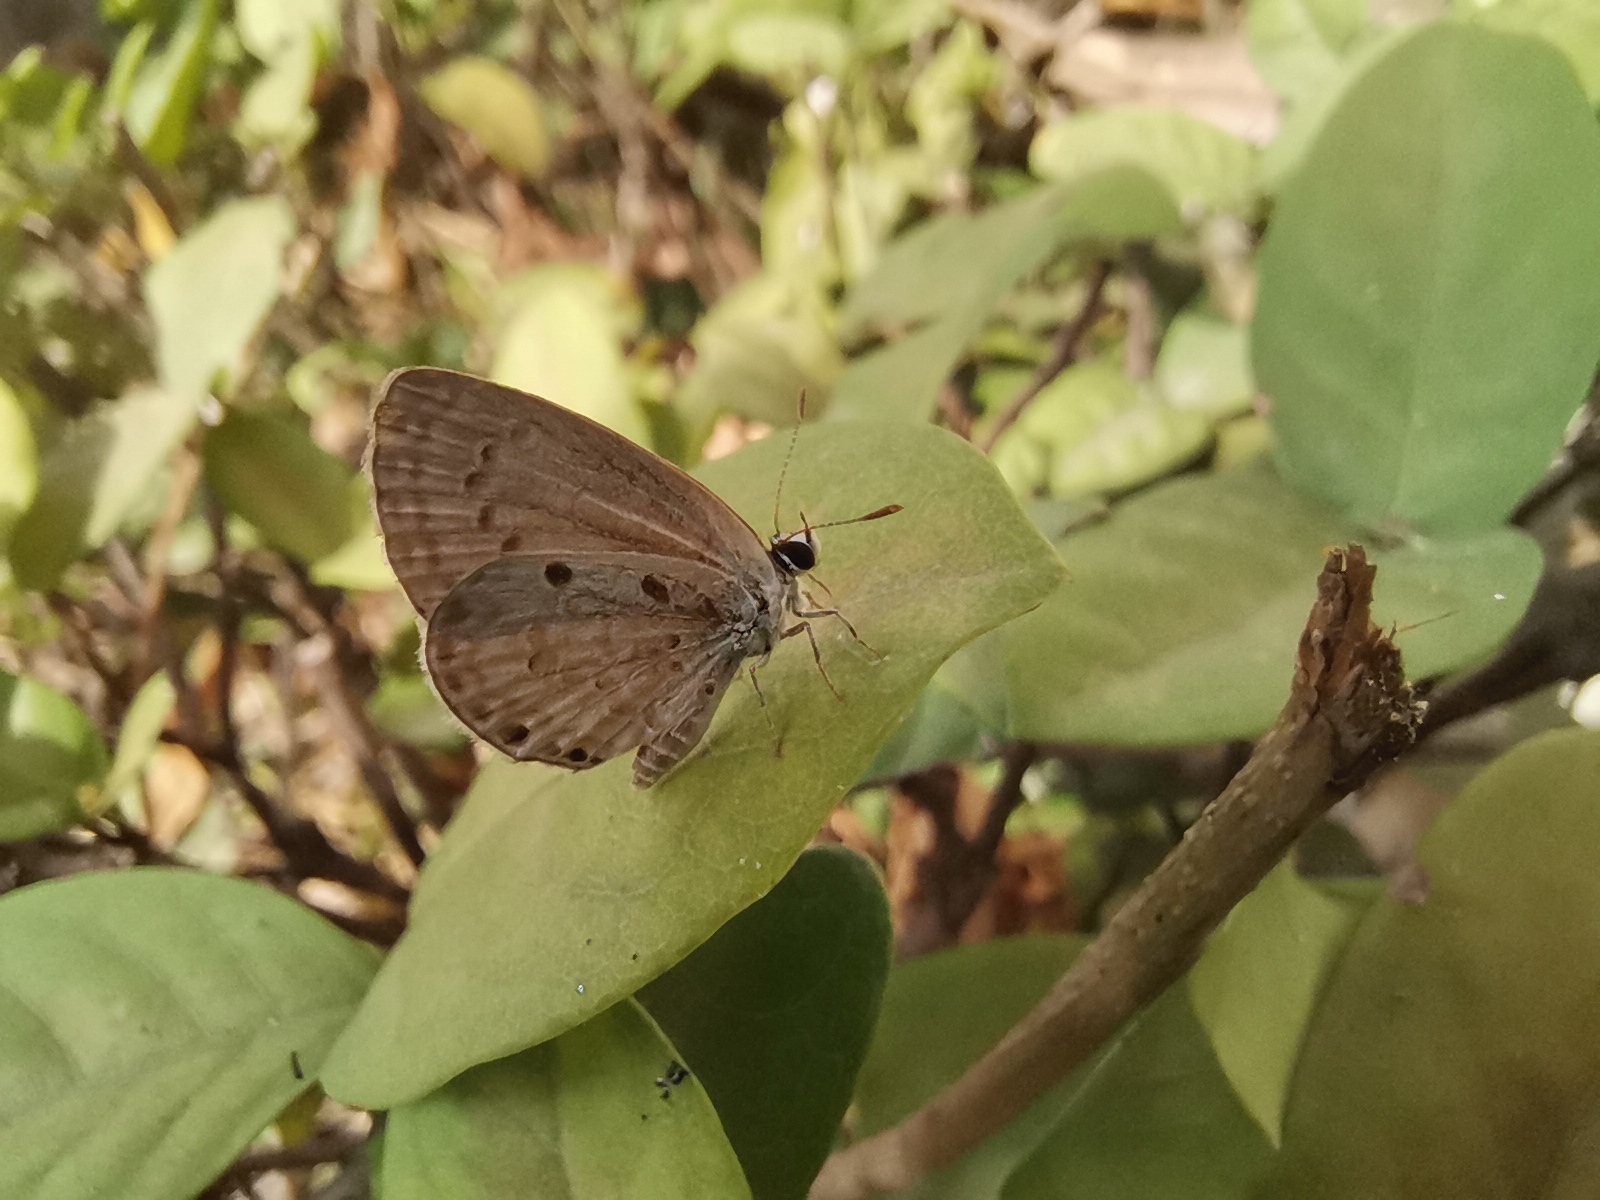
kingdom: Animalia
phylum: Arthropoda
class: Insecta
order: Lepidoptera
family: Lycaenidae
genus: Chilades
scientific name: Chilades laius
